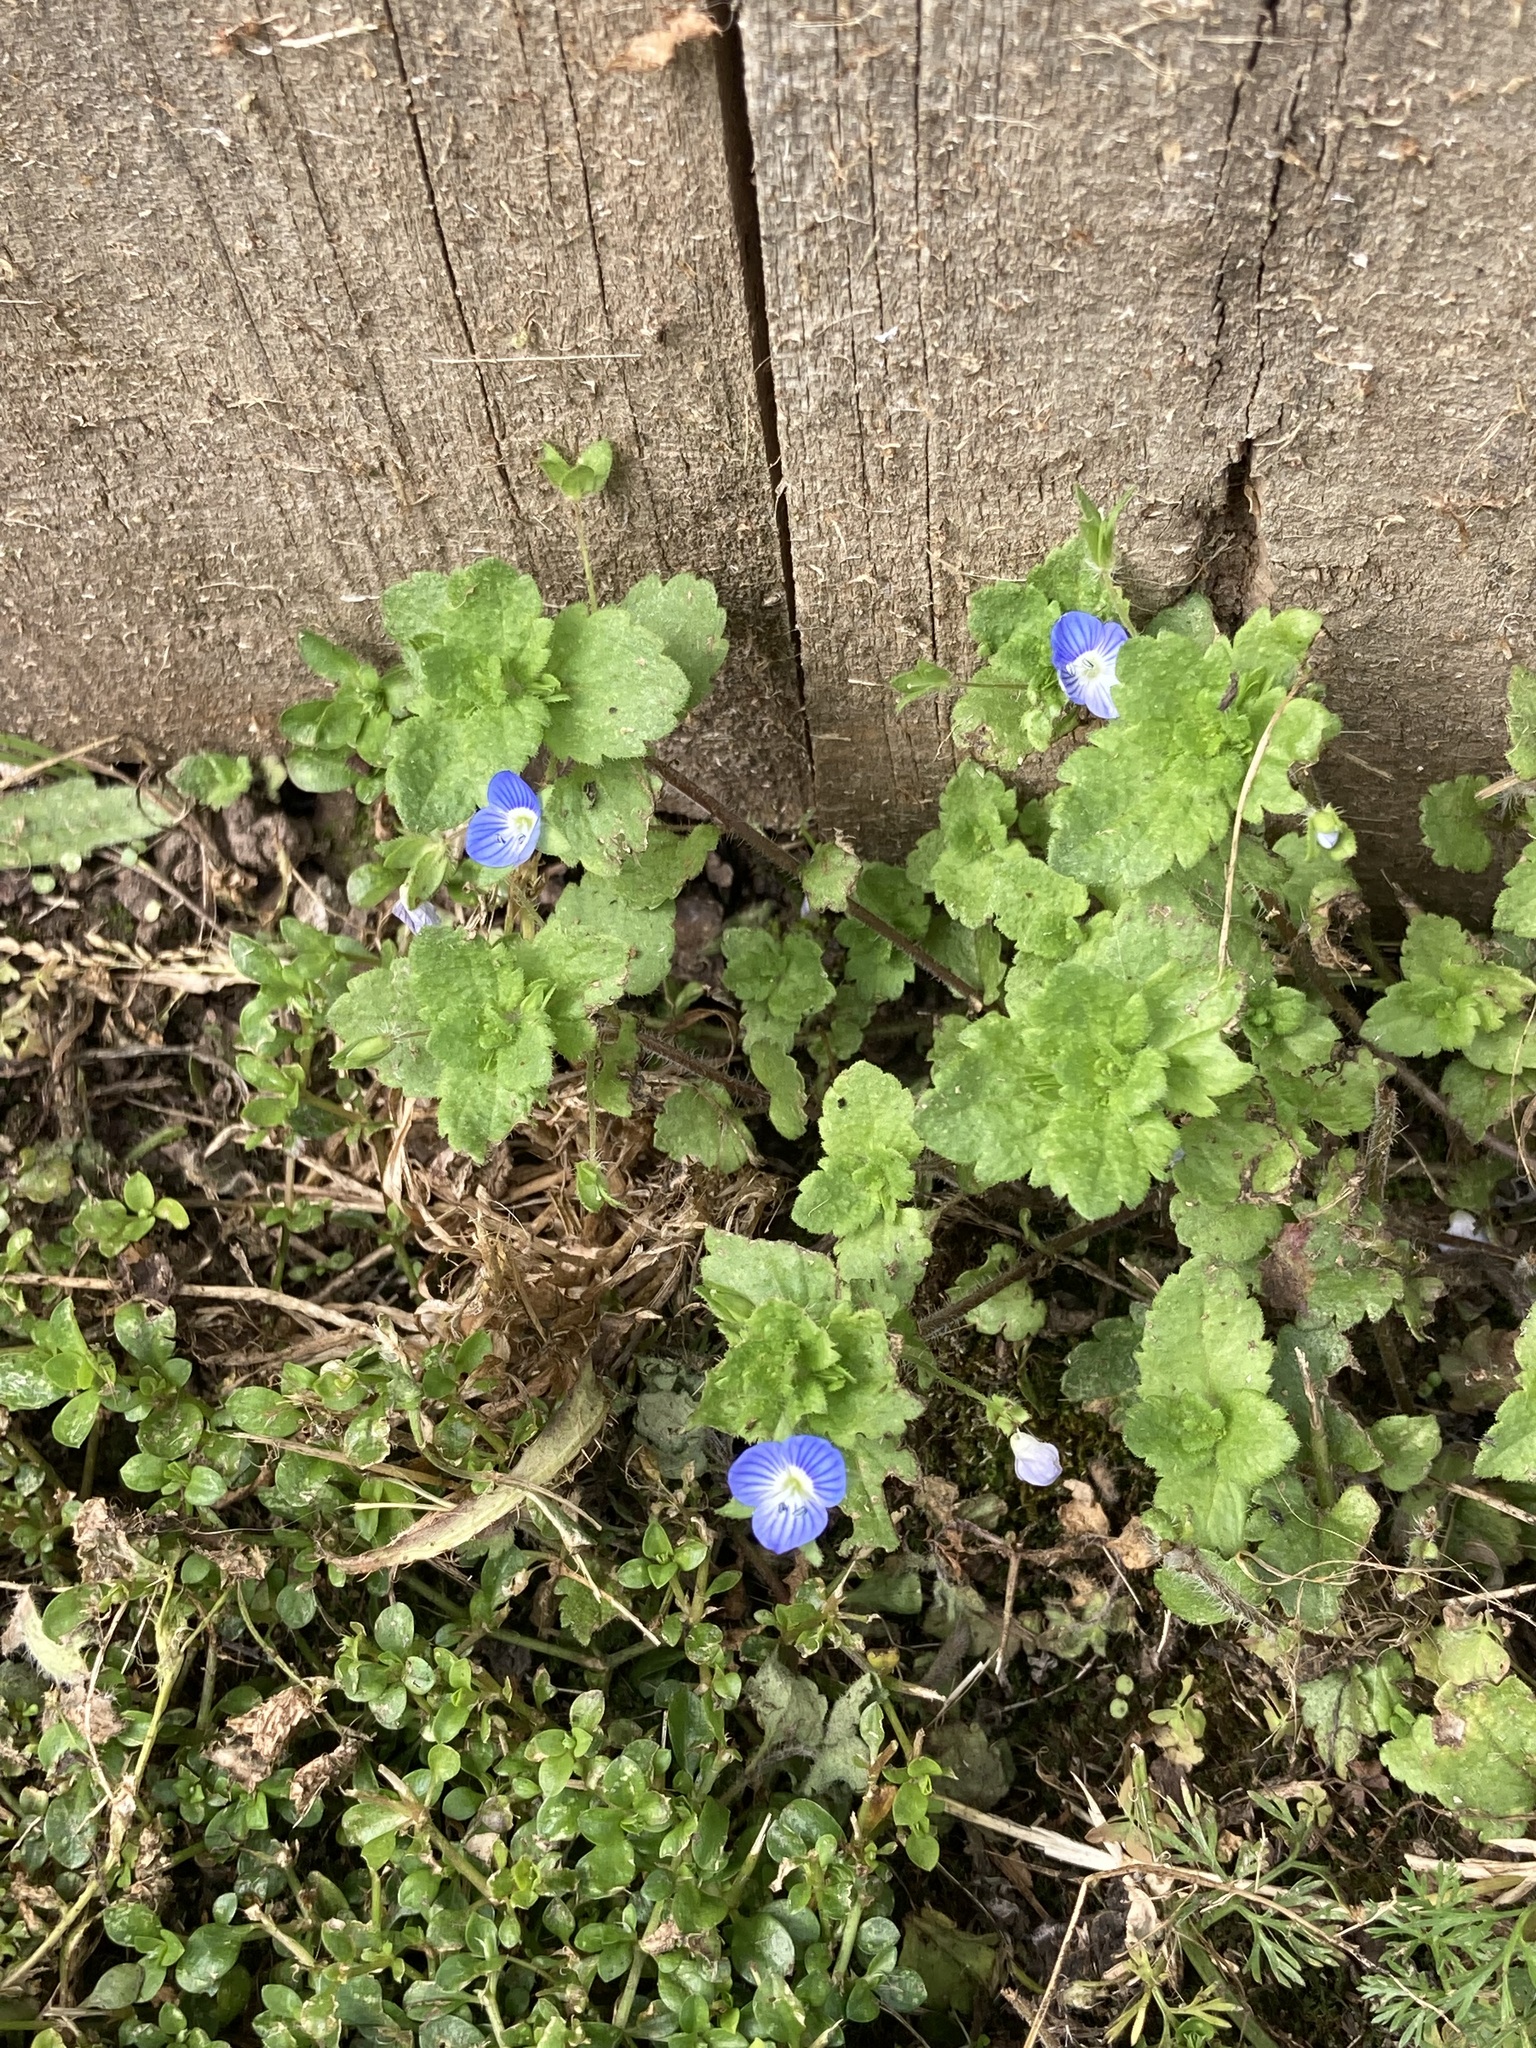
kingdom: Plantae
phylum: Tracheophyta
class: Magnoliopsida
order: Lamiales
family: Plantaginaceae
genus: Veronica
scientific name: Veronica persica
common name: Common field-speedwell
